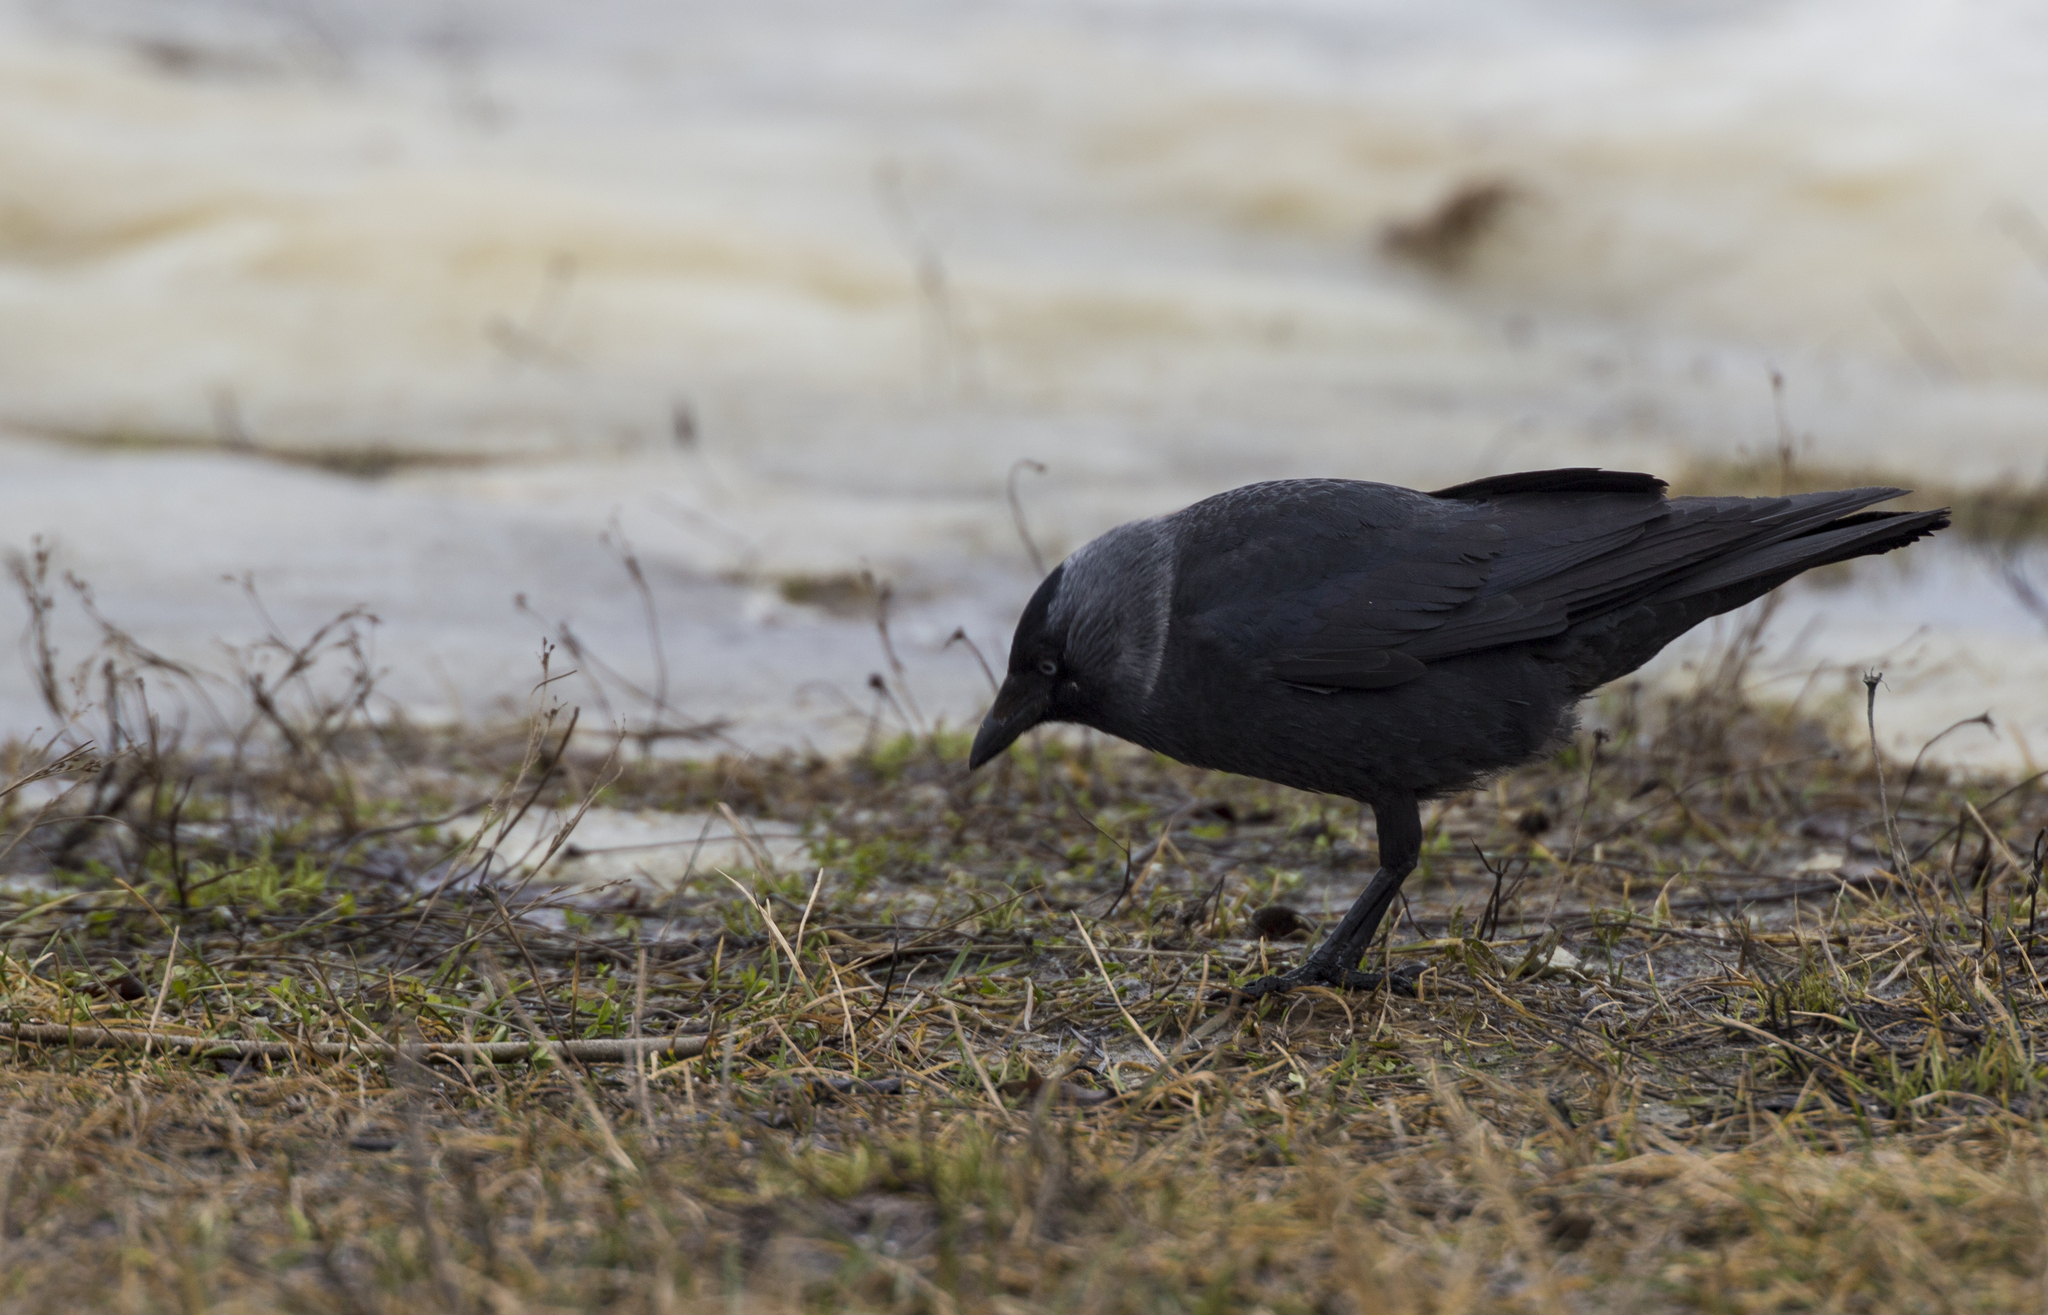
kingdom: Animalia
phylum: Chordata
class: Aves
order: Passeriformes
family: Corvidae
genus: Coloeus
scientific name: Coloeus monedula
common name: Western jackdaw
